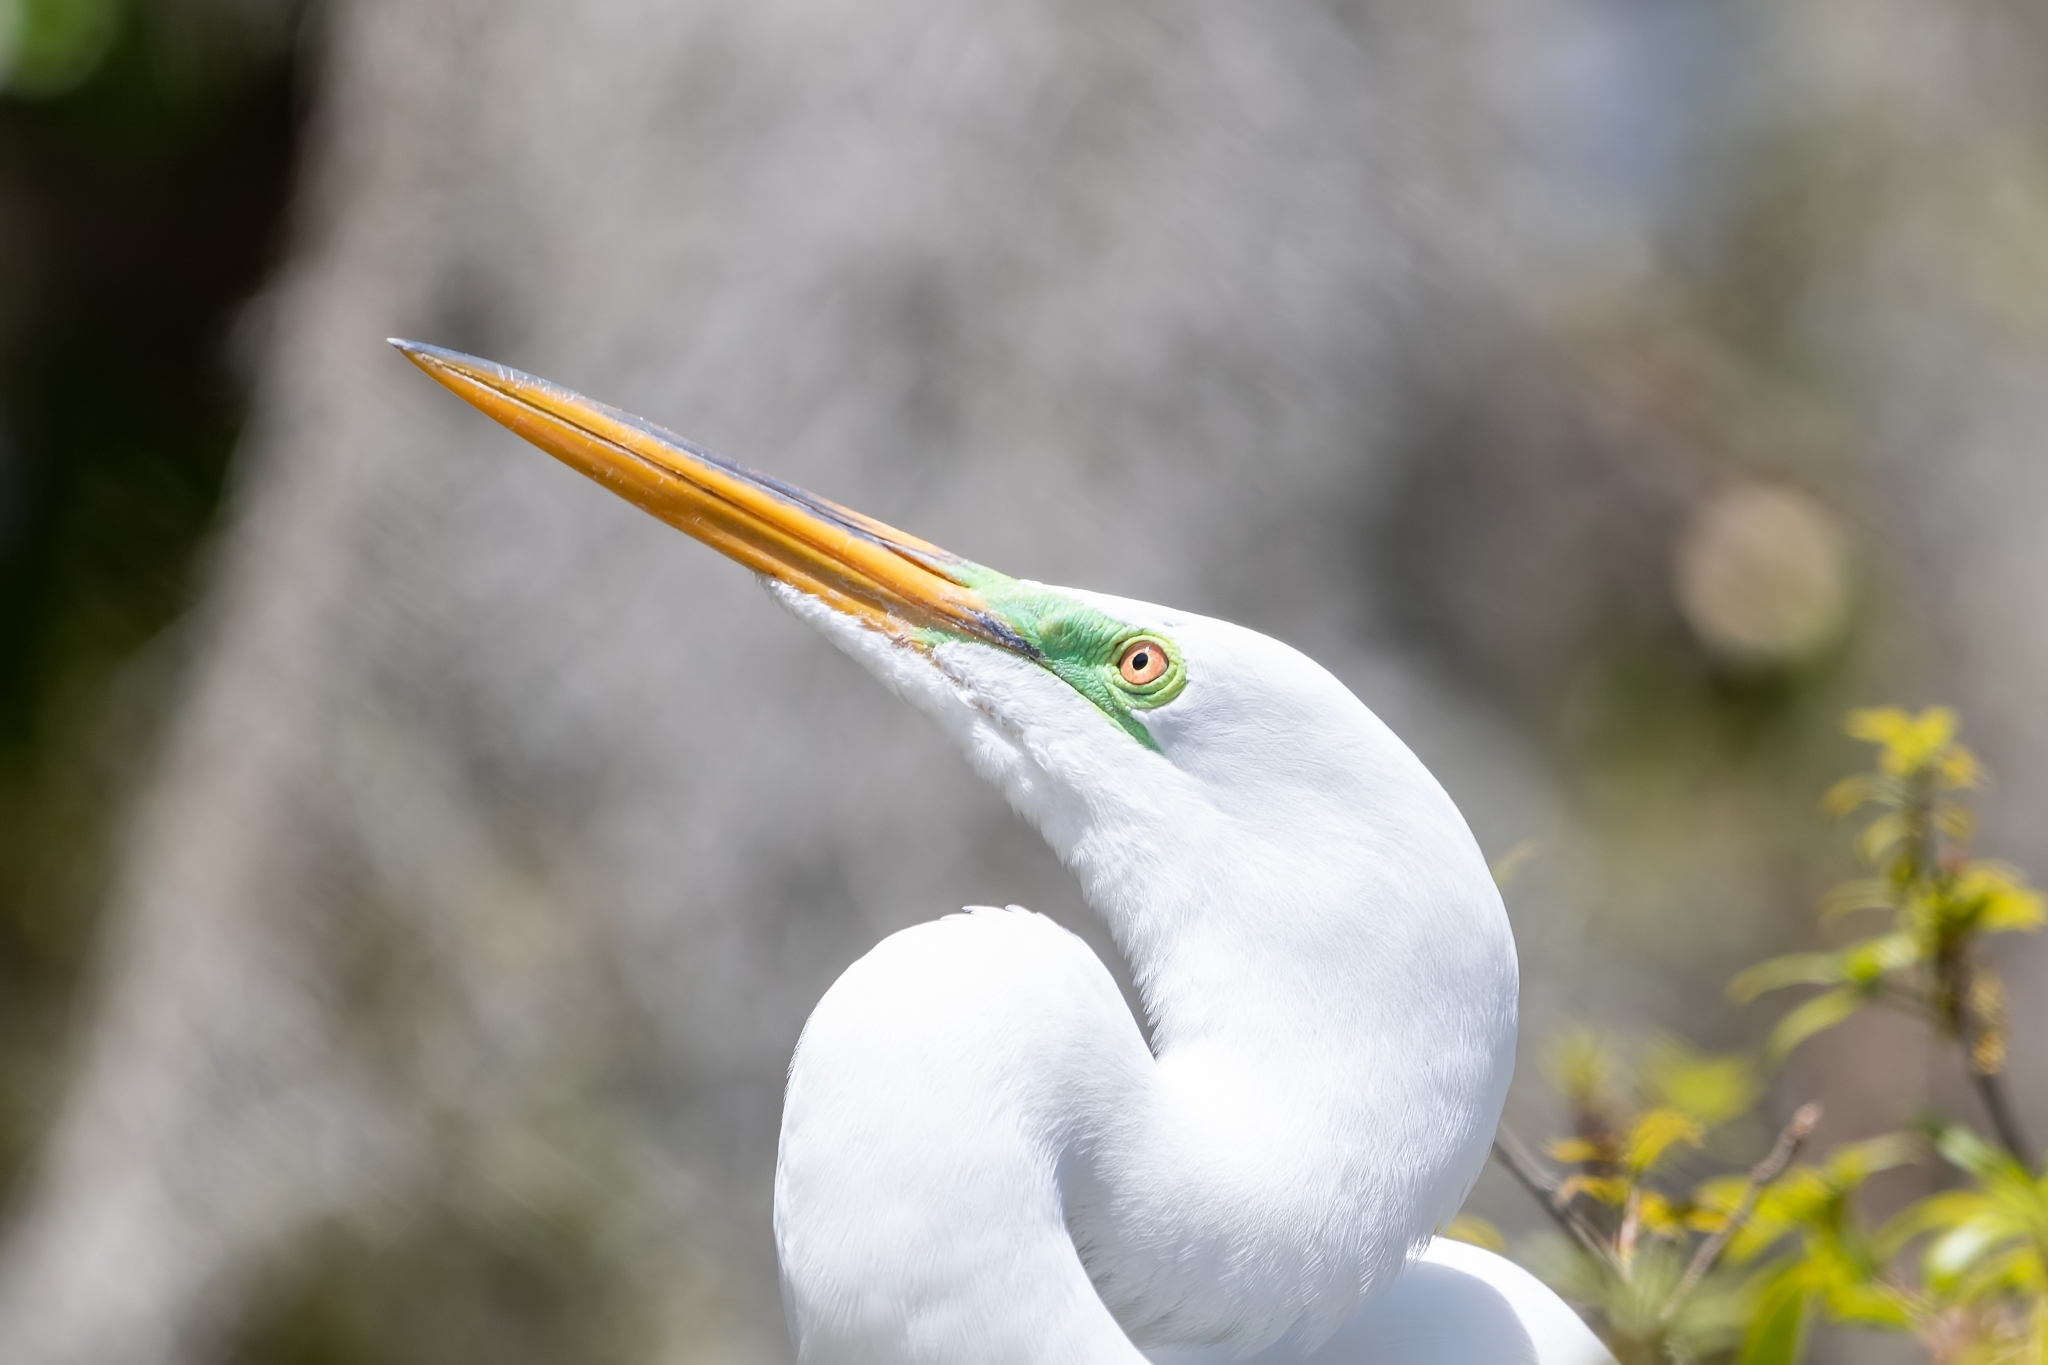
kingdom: Animalia
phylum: Chordata
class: Aves
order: Pelecaniformes
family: Ardeidae
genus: Ardea
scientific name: Ardea alba
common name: Great egret
